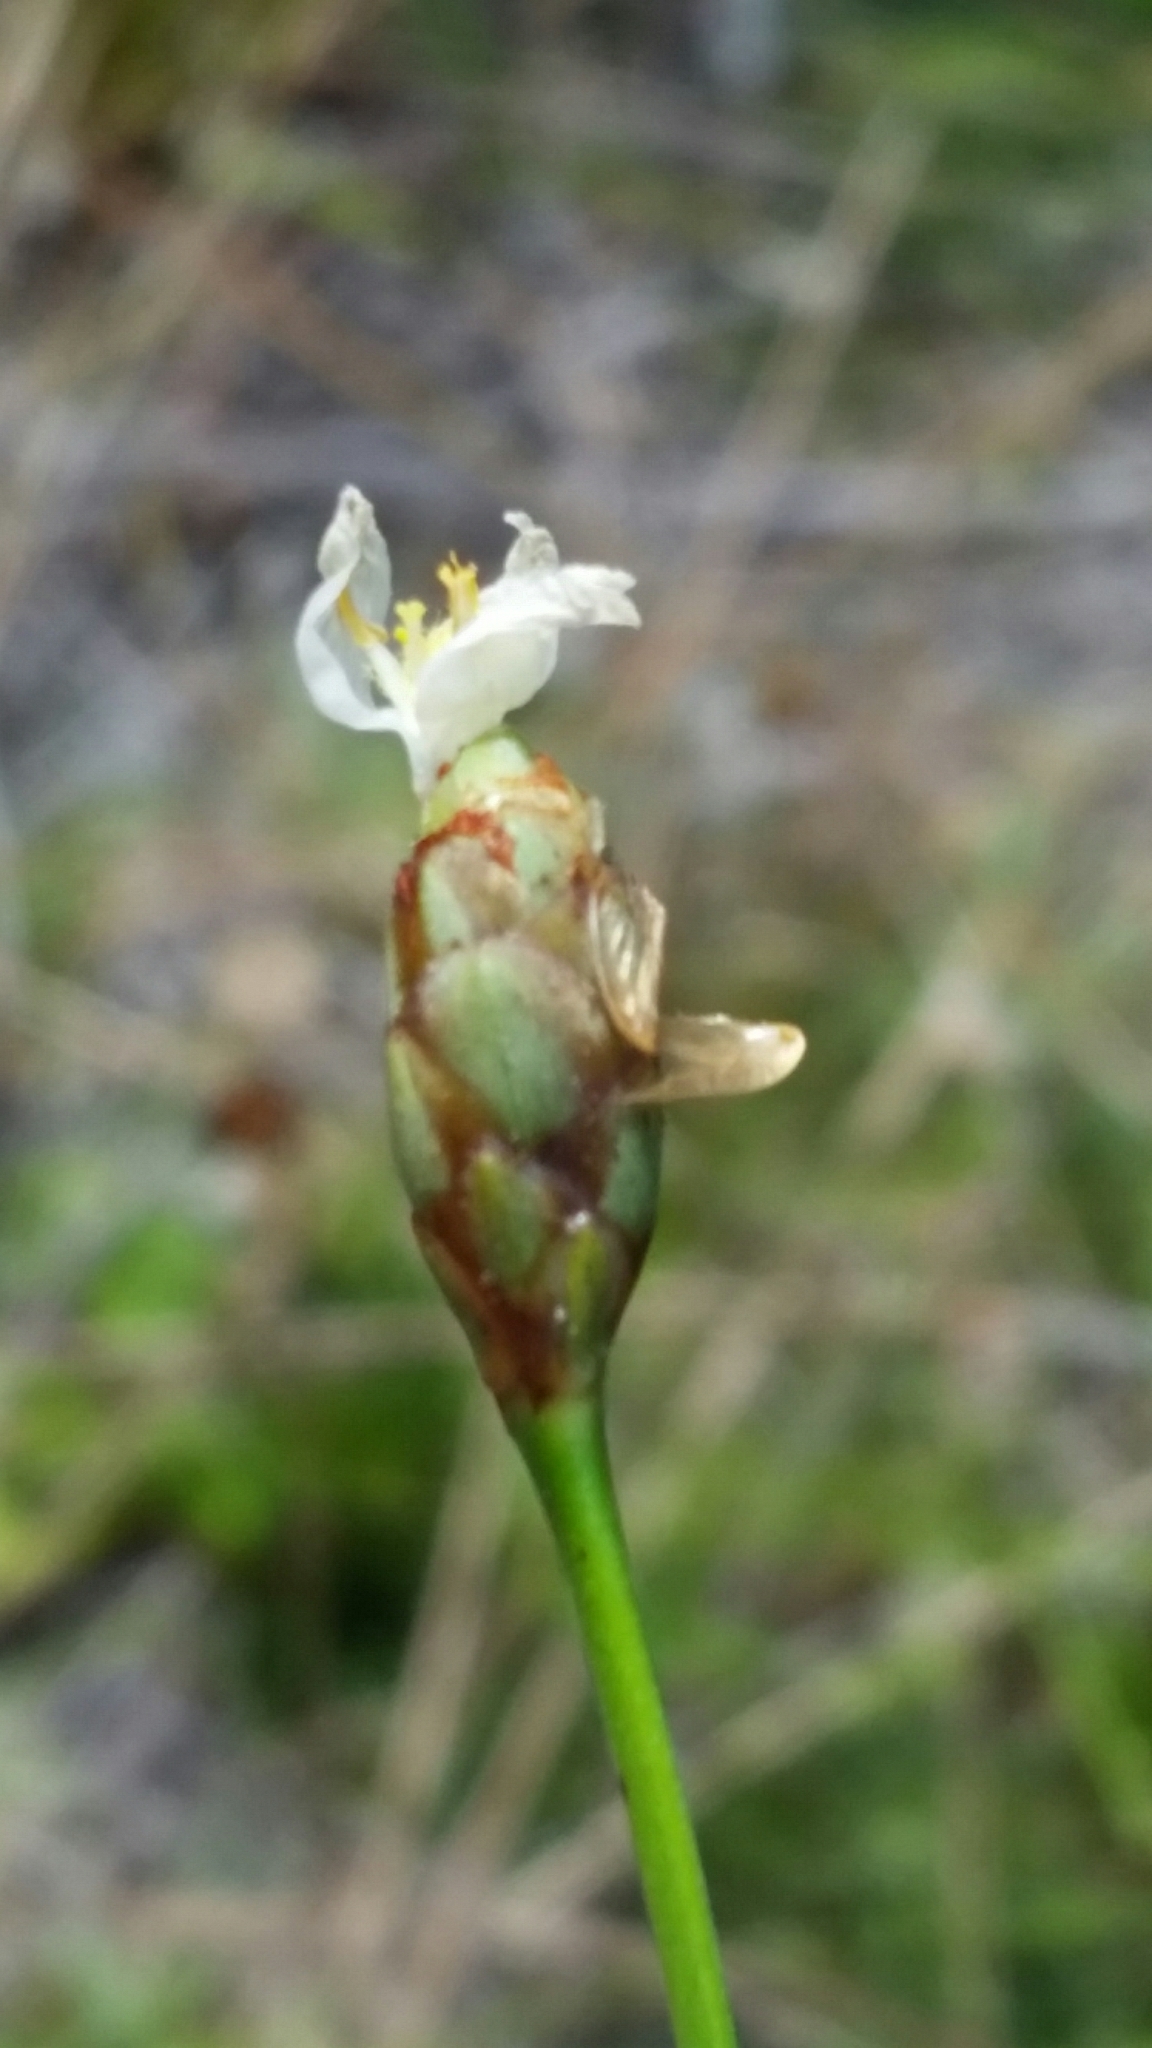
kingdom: Plantae
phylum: Tracheophyta
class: Liliopsida
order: Poales
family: Xyridaceae
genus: Xyris
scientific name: Xyris caroliniana
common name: Carolina yellow-eyed-grass
